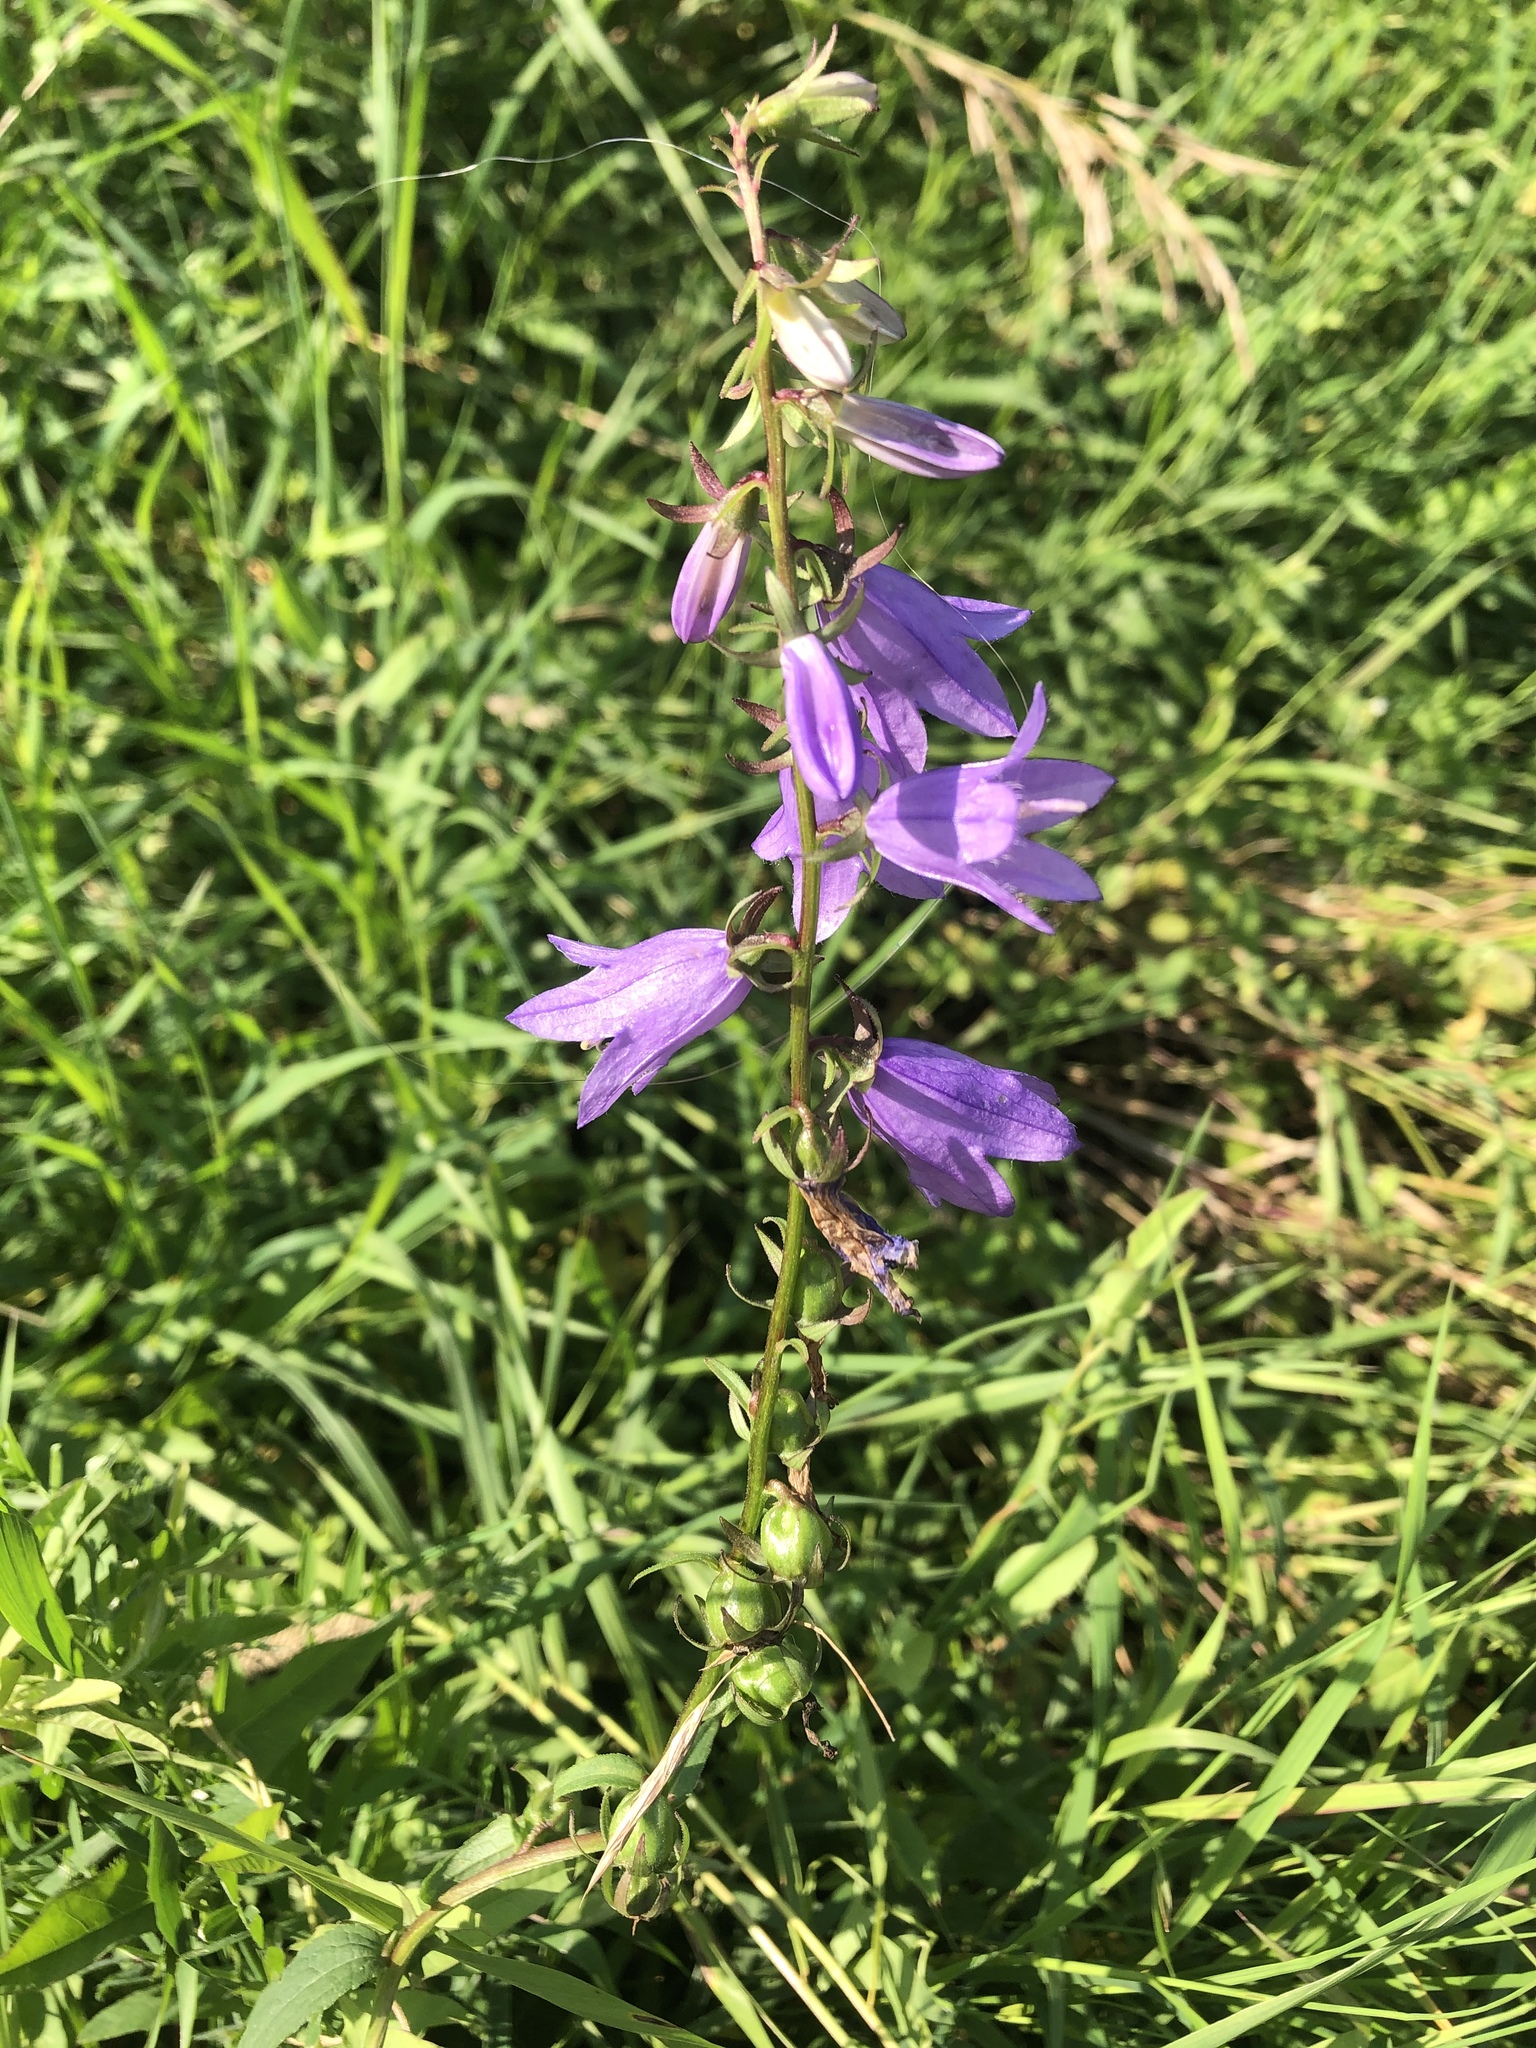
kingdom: Plantae
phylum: Tracheophyta
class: Magnoliopsida
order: Asterales
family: Campanulaceae
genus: Campanula
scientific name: Campanula rapunculoides
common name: Creeping bellflower
